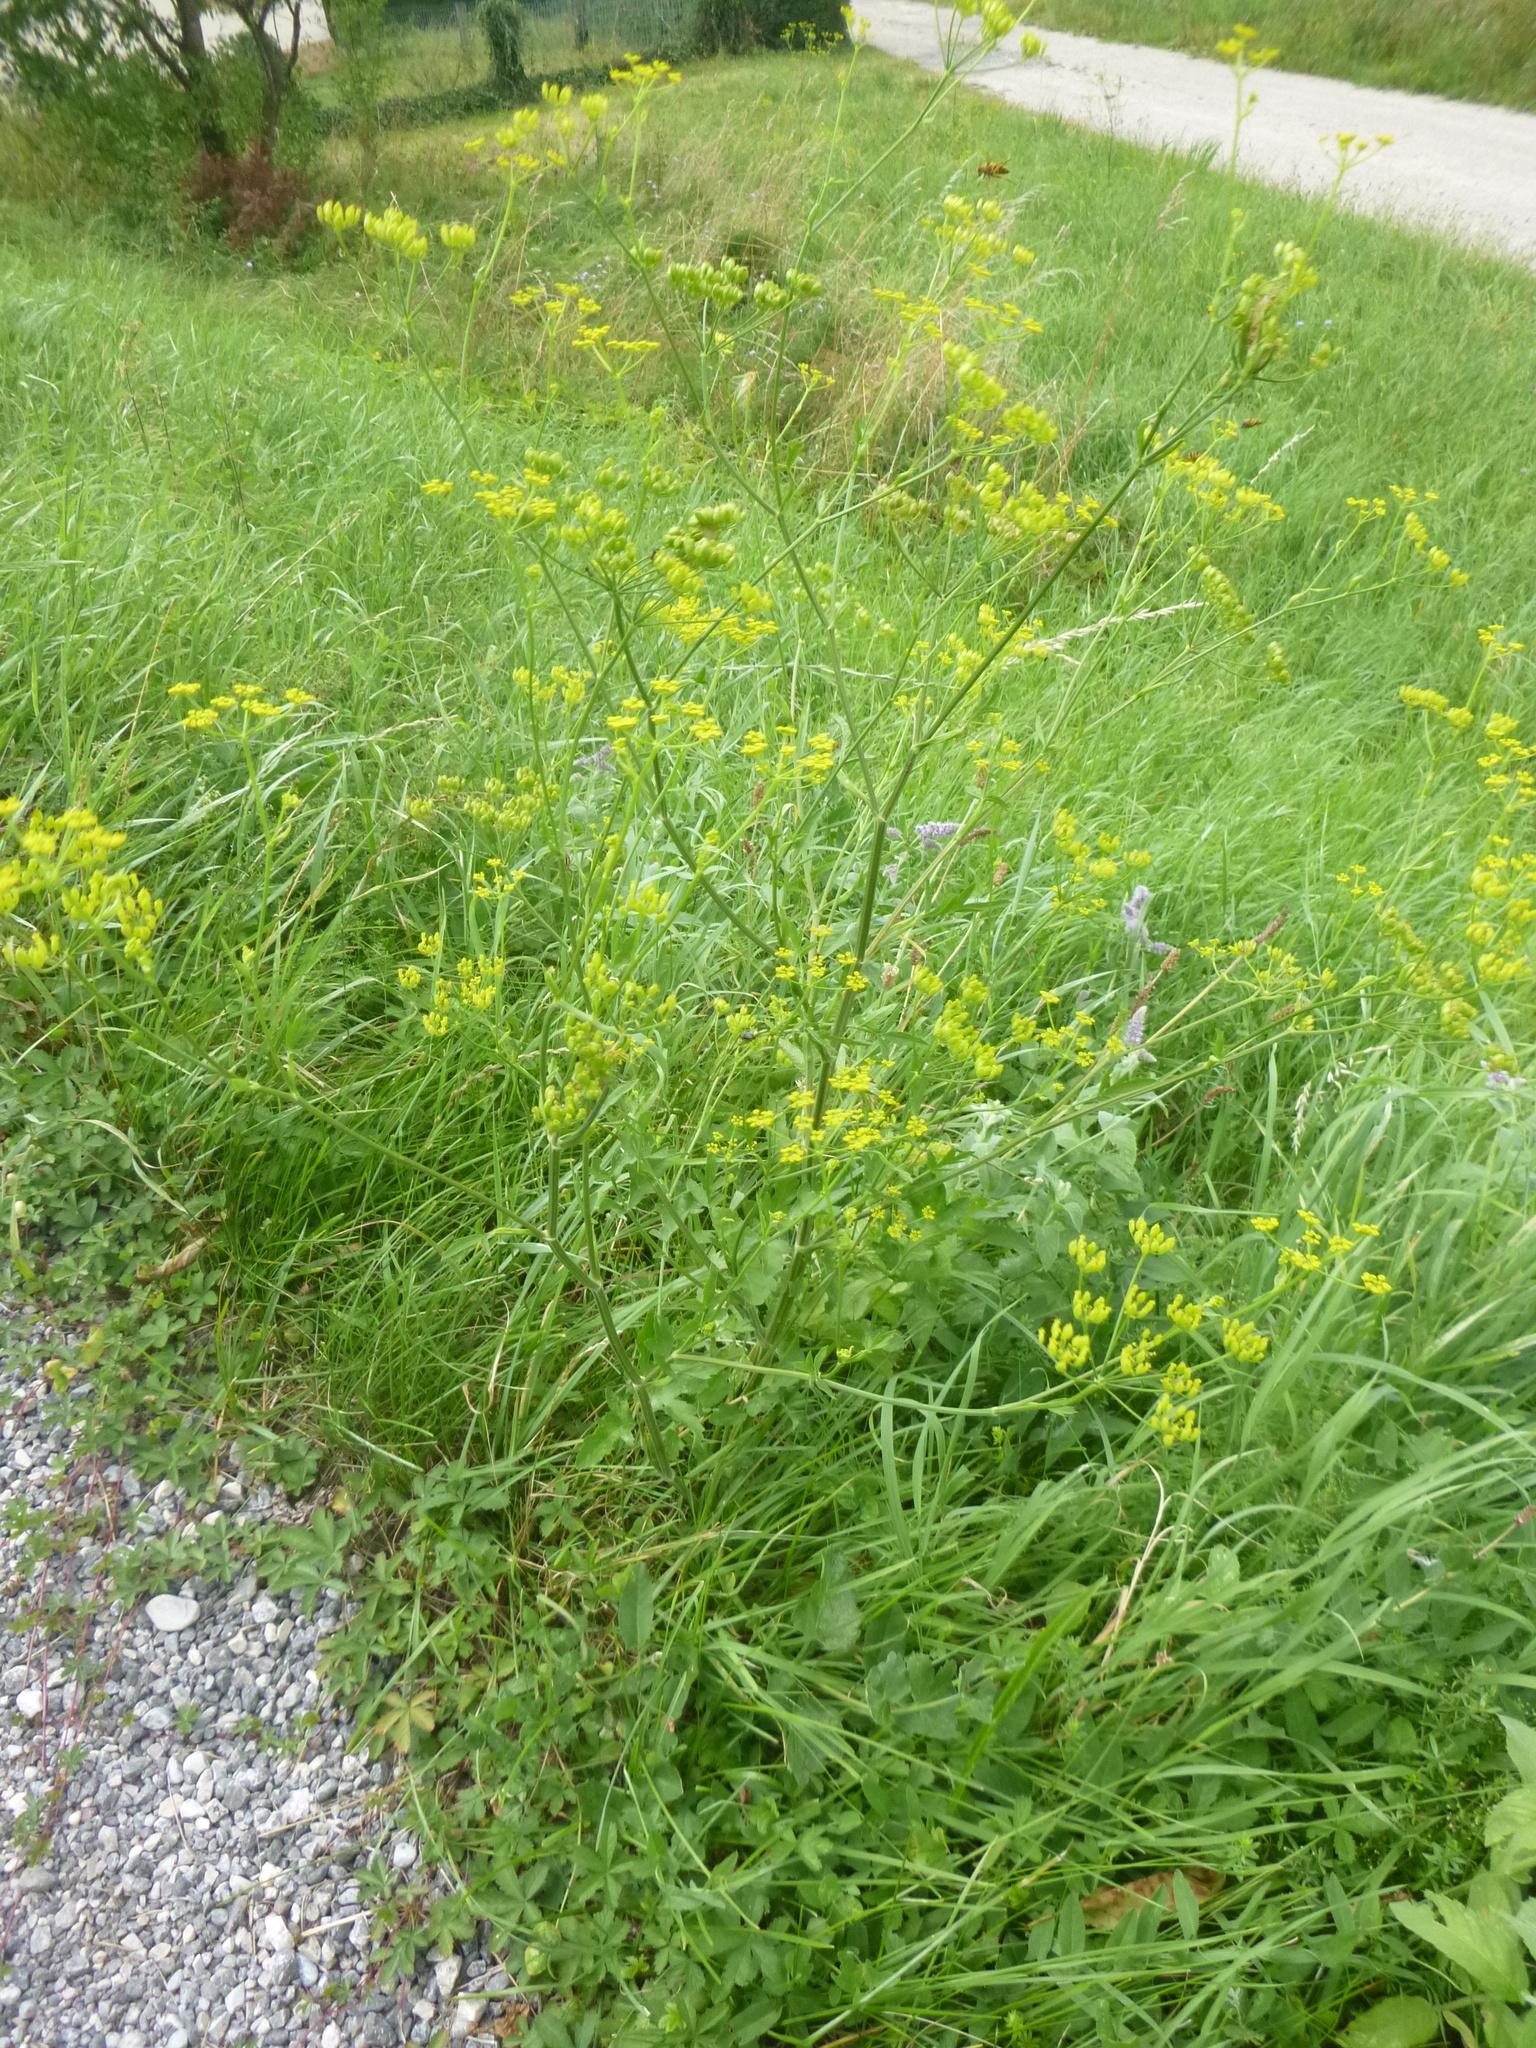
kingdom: Plantae
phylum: Tracheophyta
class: Magnoliopsida
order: Apiales
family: Apiaceae
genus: Pastinaca
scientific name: Pastinaca sativa
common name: Wild parsnip
